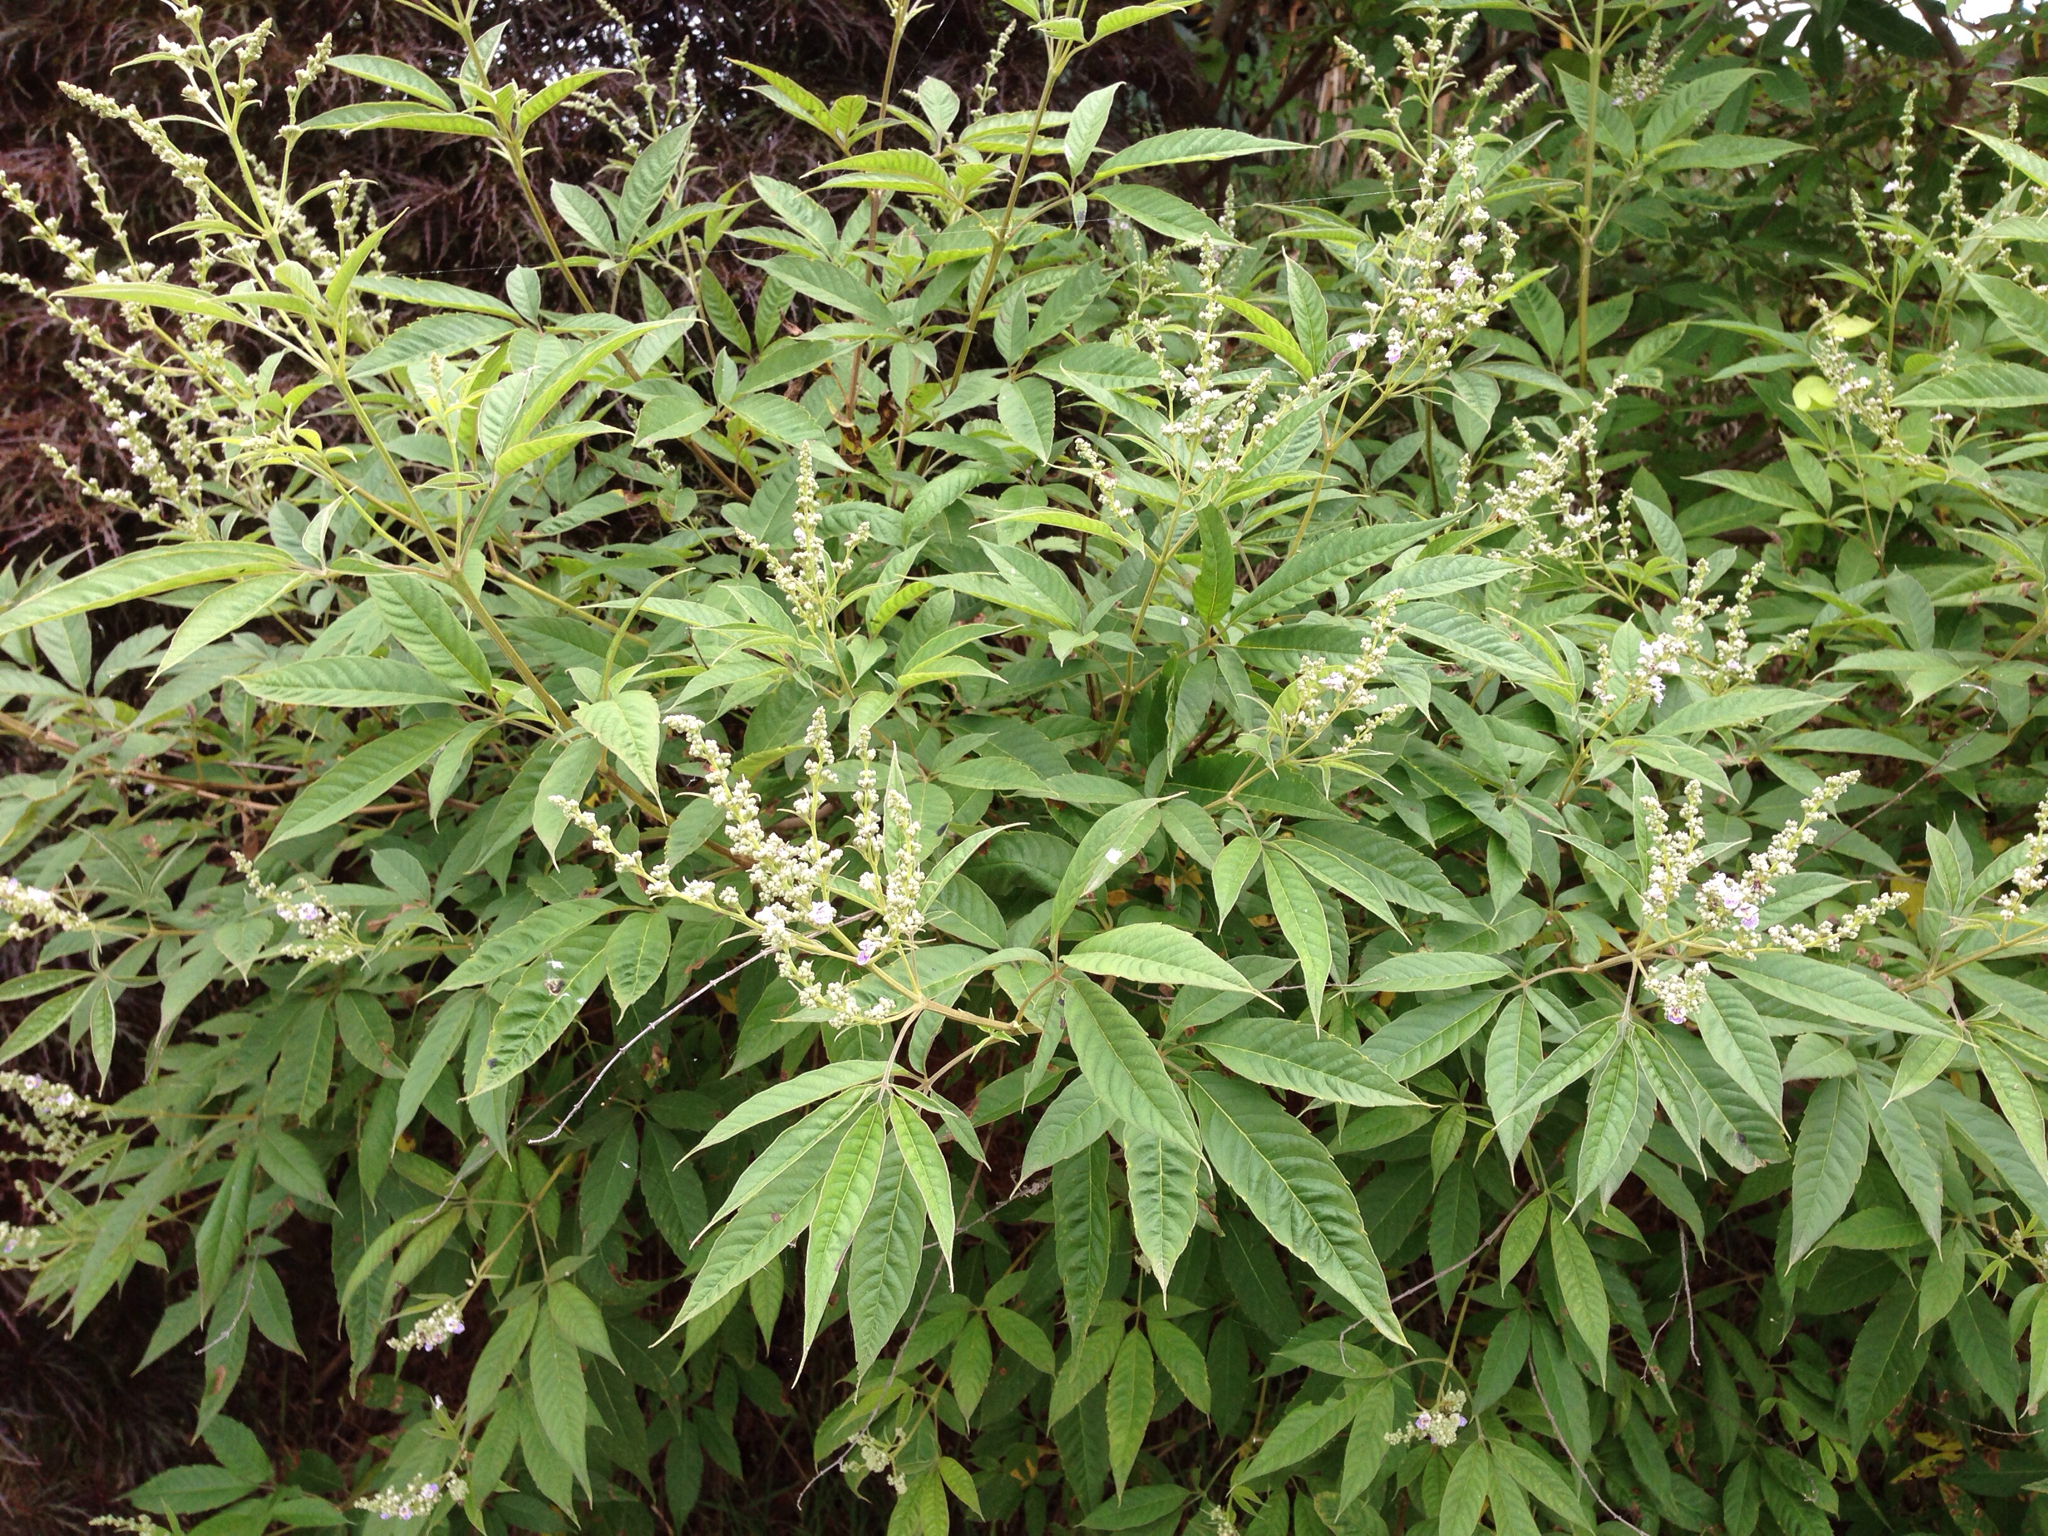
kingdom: Plantae
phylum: Tracheophyta
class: Magnoliopsida
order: Lamiales
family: Lamiaceae
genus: Vitex
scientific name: Vitex negundo
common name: Chinese chastetree
